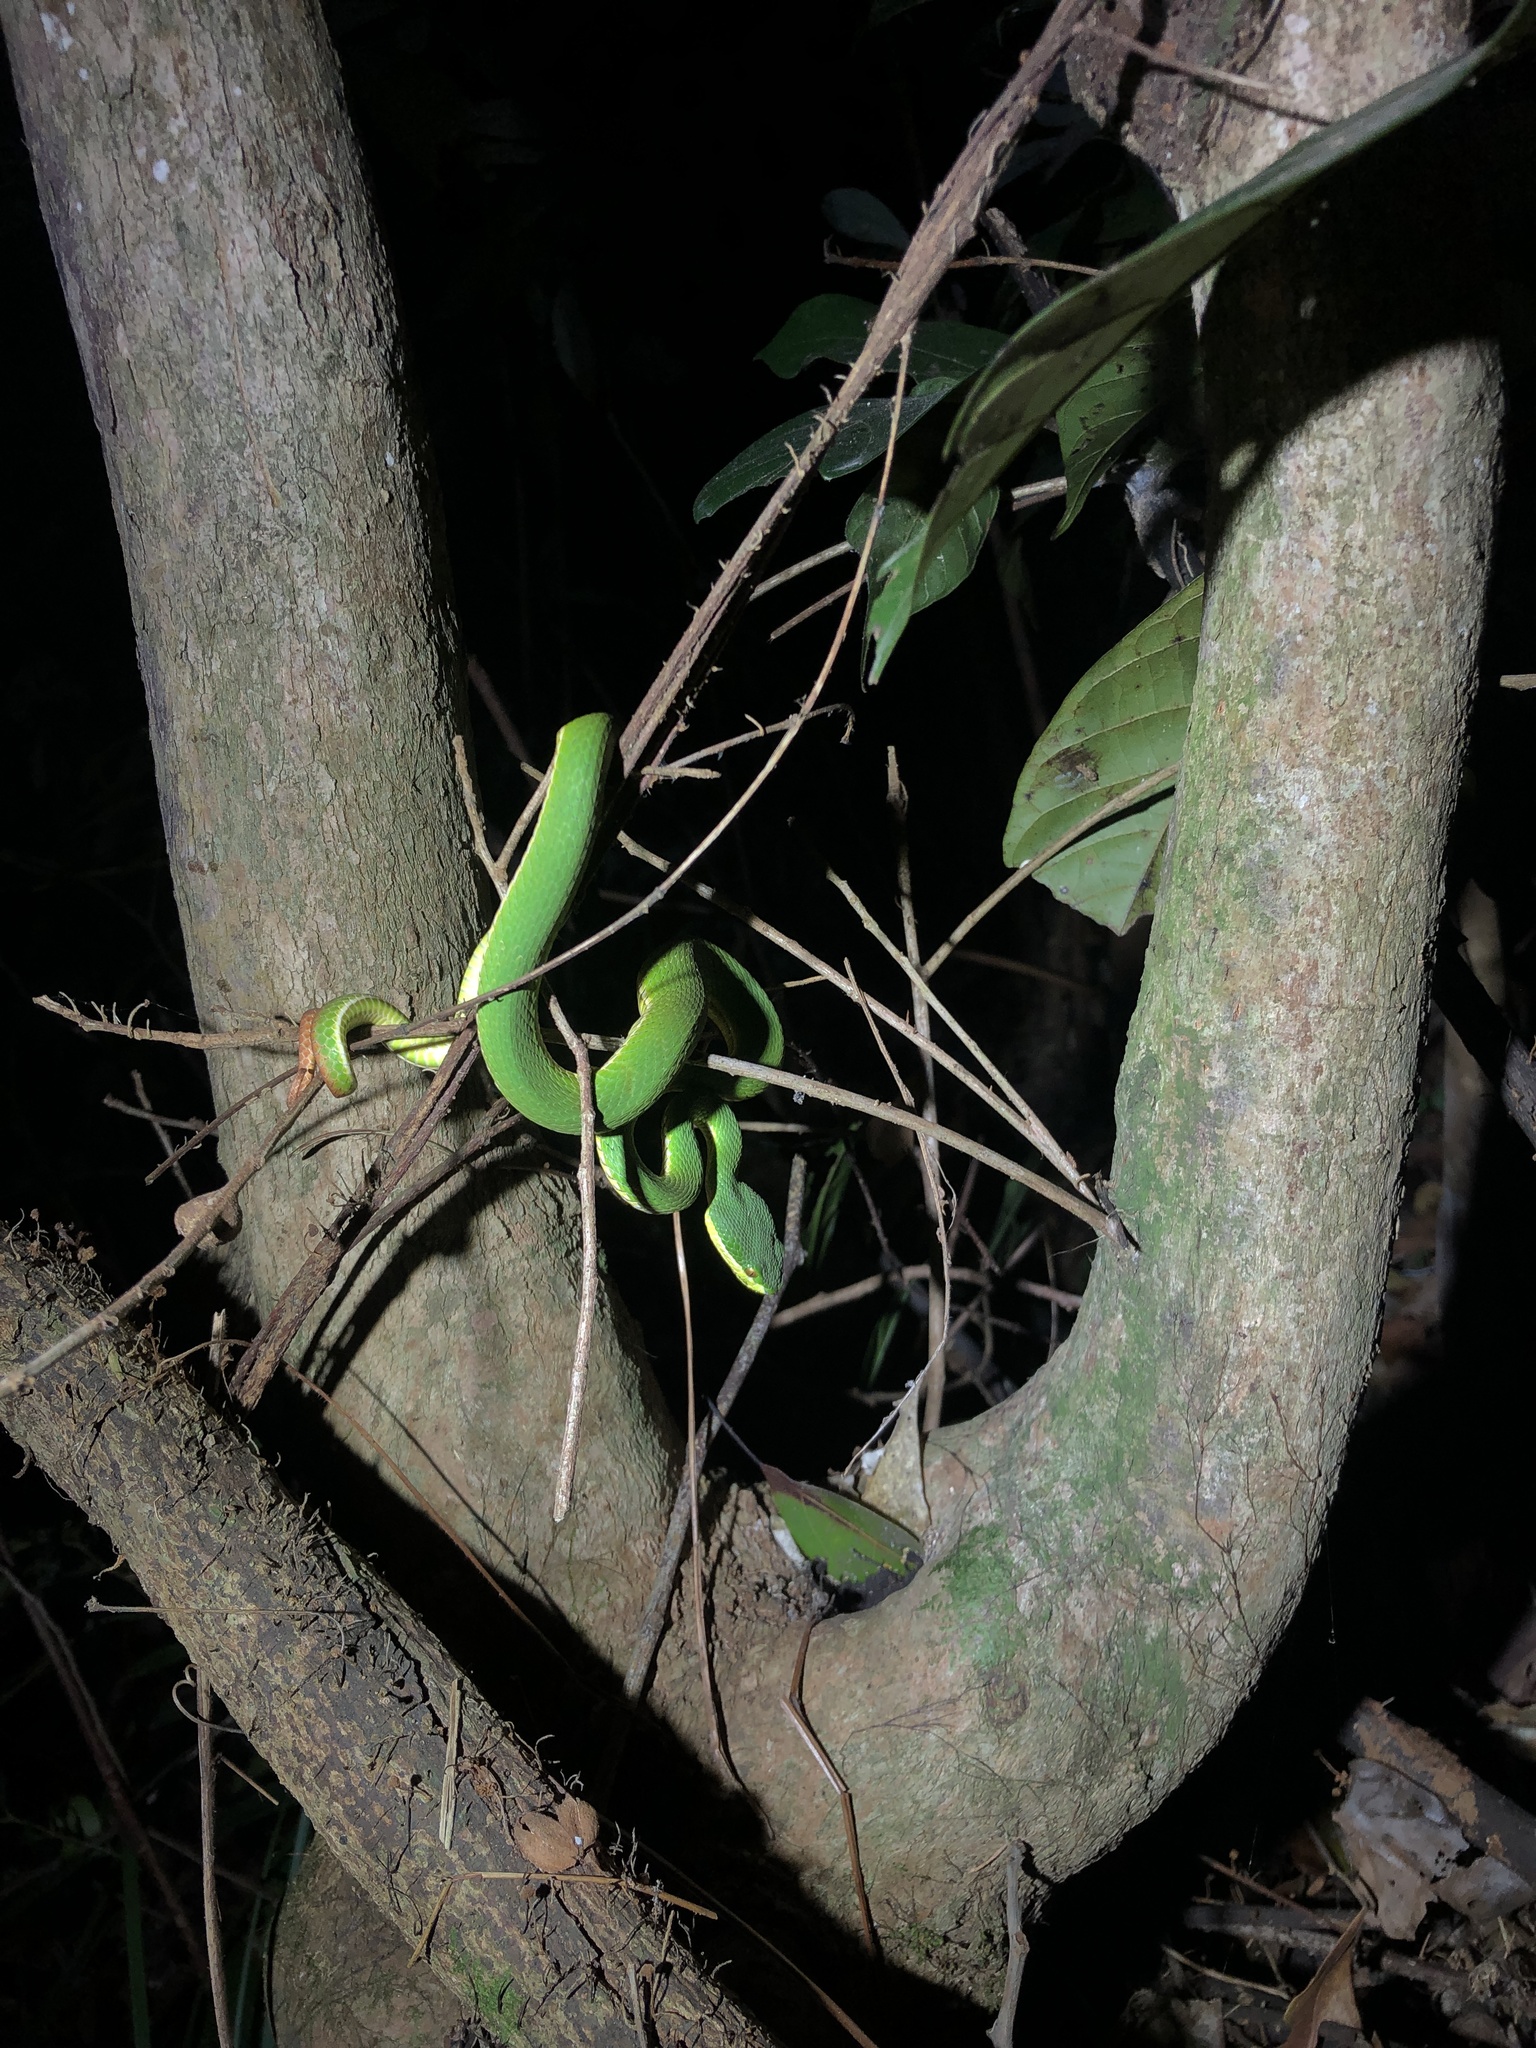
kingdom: Animalia
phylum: Chordata
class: Squamata
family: Viperidae
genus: Trimeresurus
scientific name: Trimeresurus albolabris
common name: White-lipped pitviper
